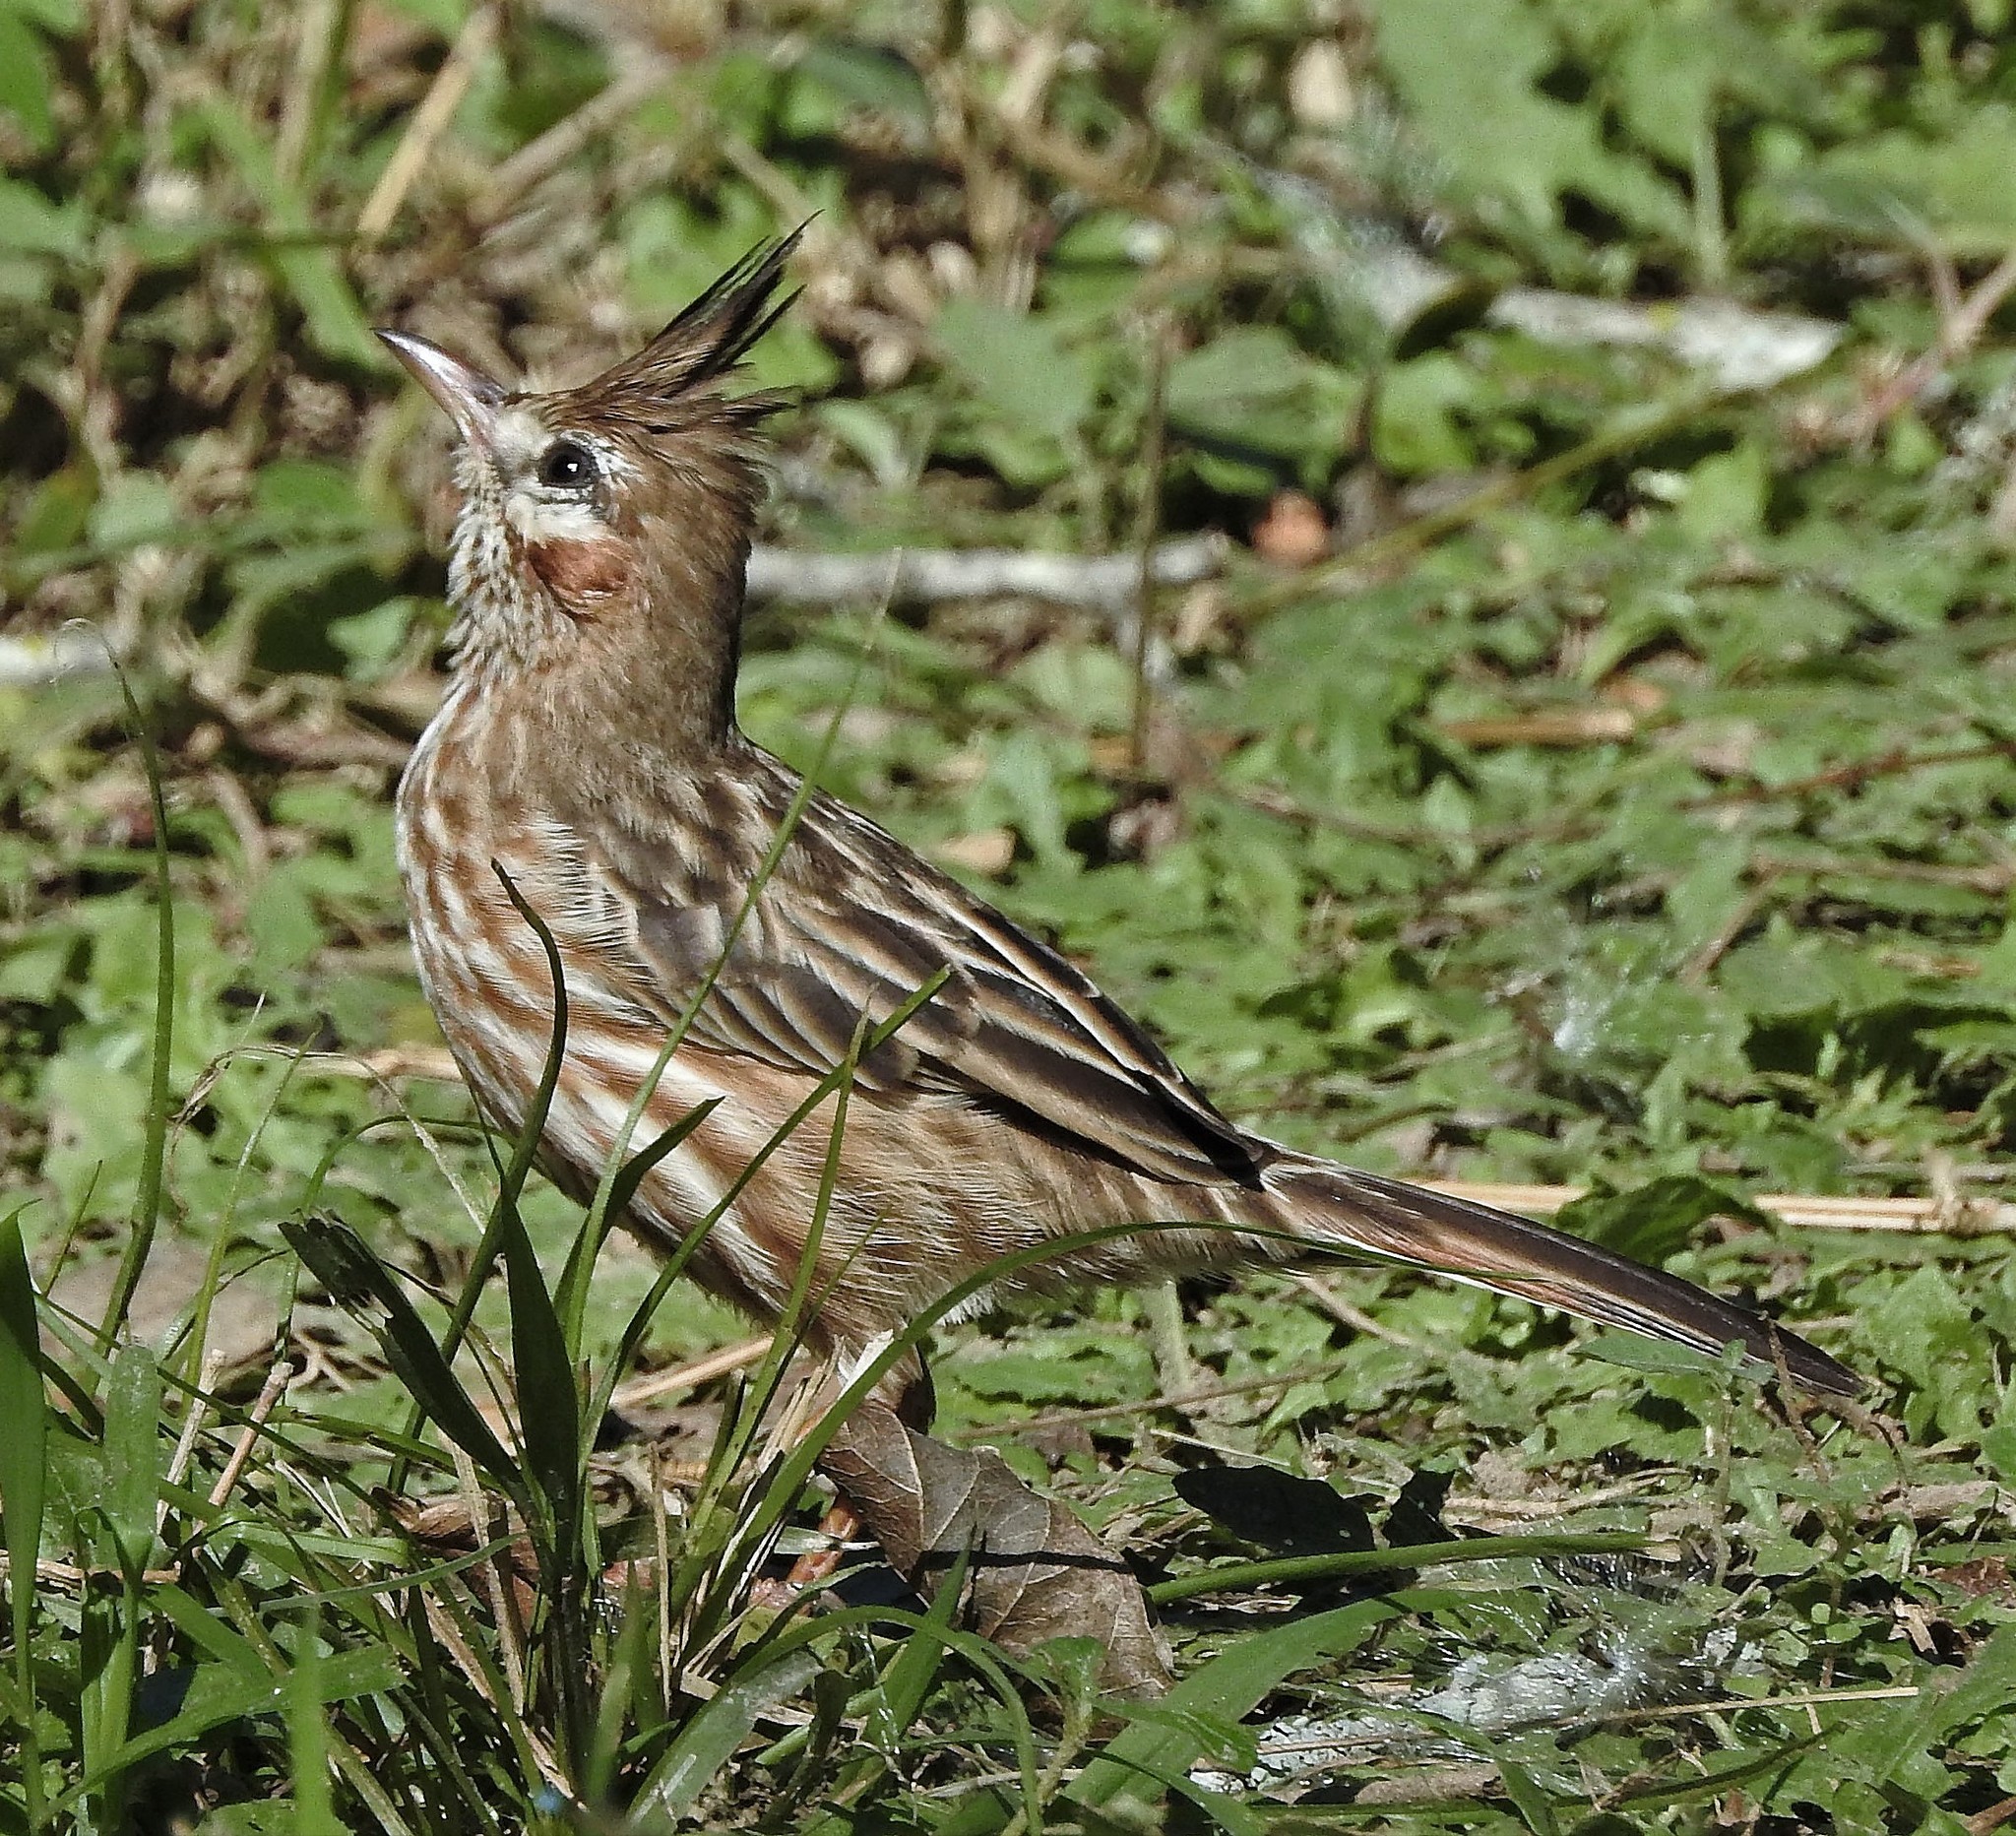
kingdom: Animalia
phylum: Chordata
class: Aves
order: Passeriformes
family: Furnariidae
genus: Coryphistera
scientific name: Coryphistera alaudina
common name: Lark-like brushrunner
